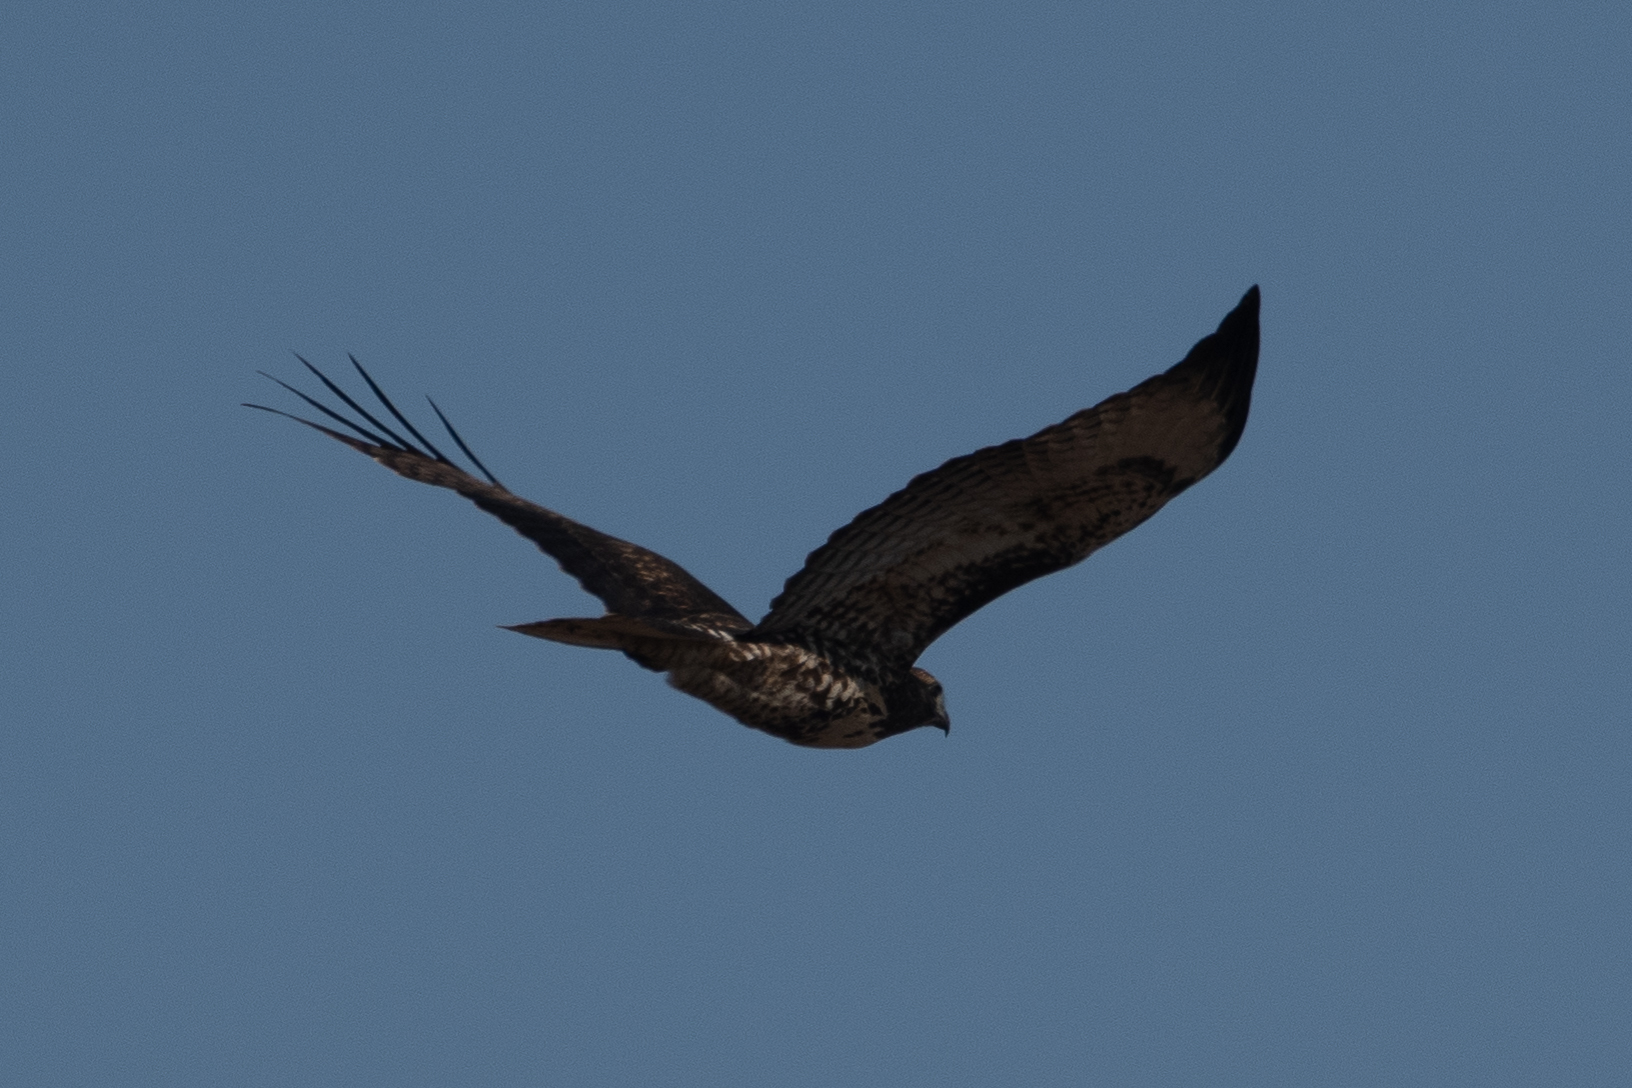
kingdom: Animalia
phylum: Chordata
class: Aves
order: Accipitriformes
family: Accipitridae
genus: Buteo
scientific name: Buteo jamaicensis
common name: Red-tailed hawk
